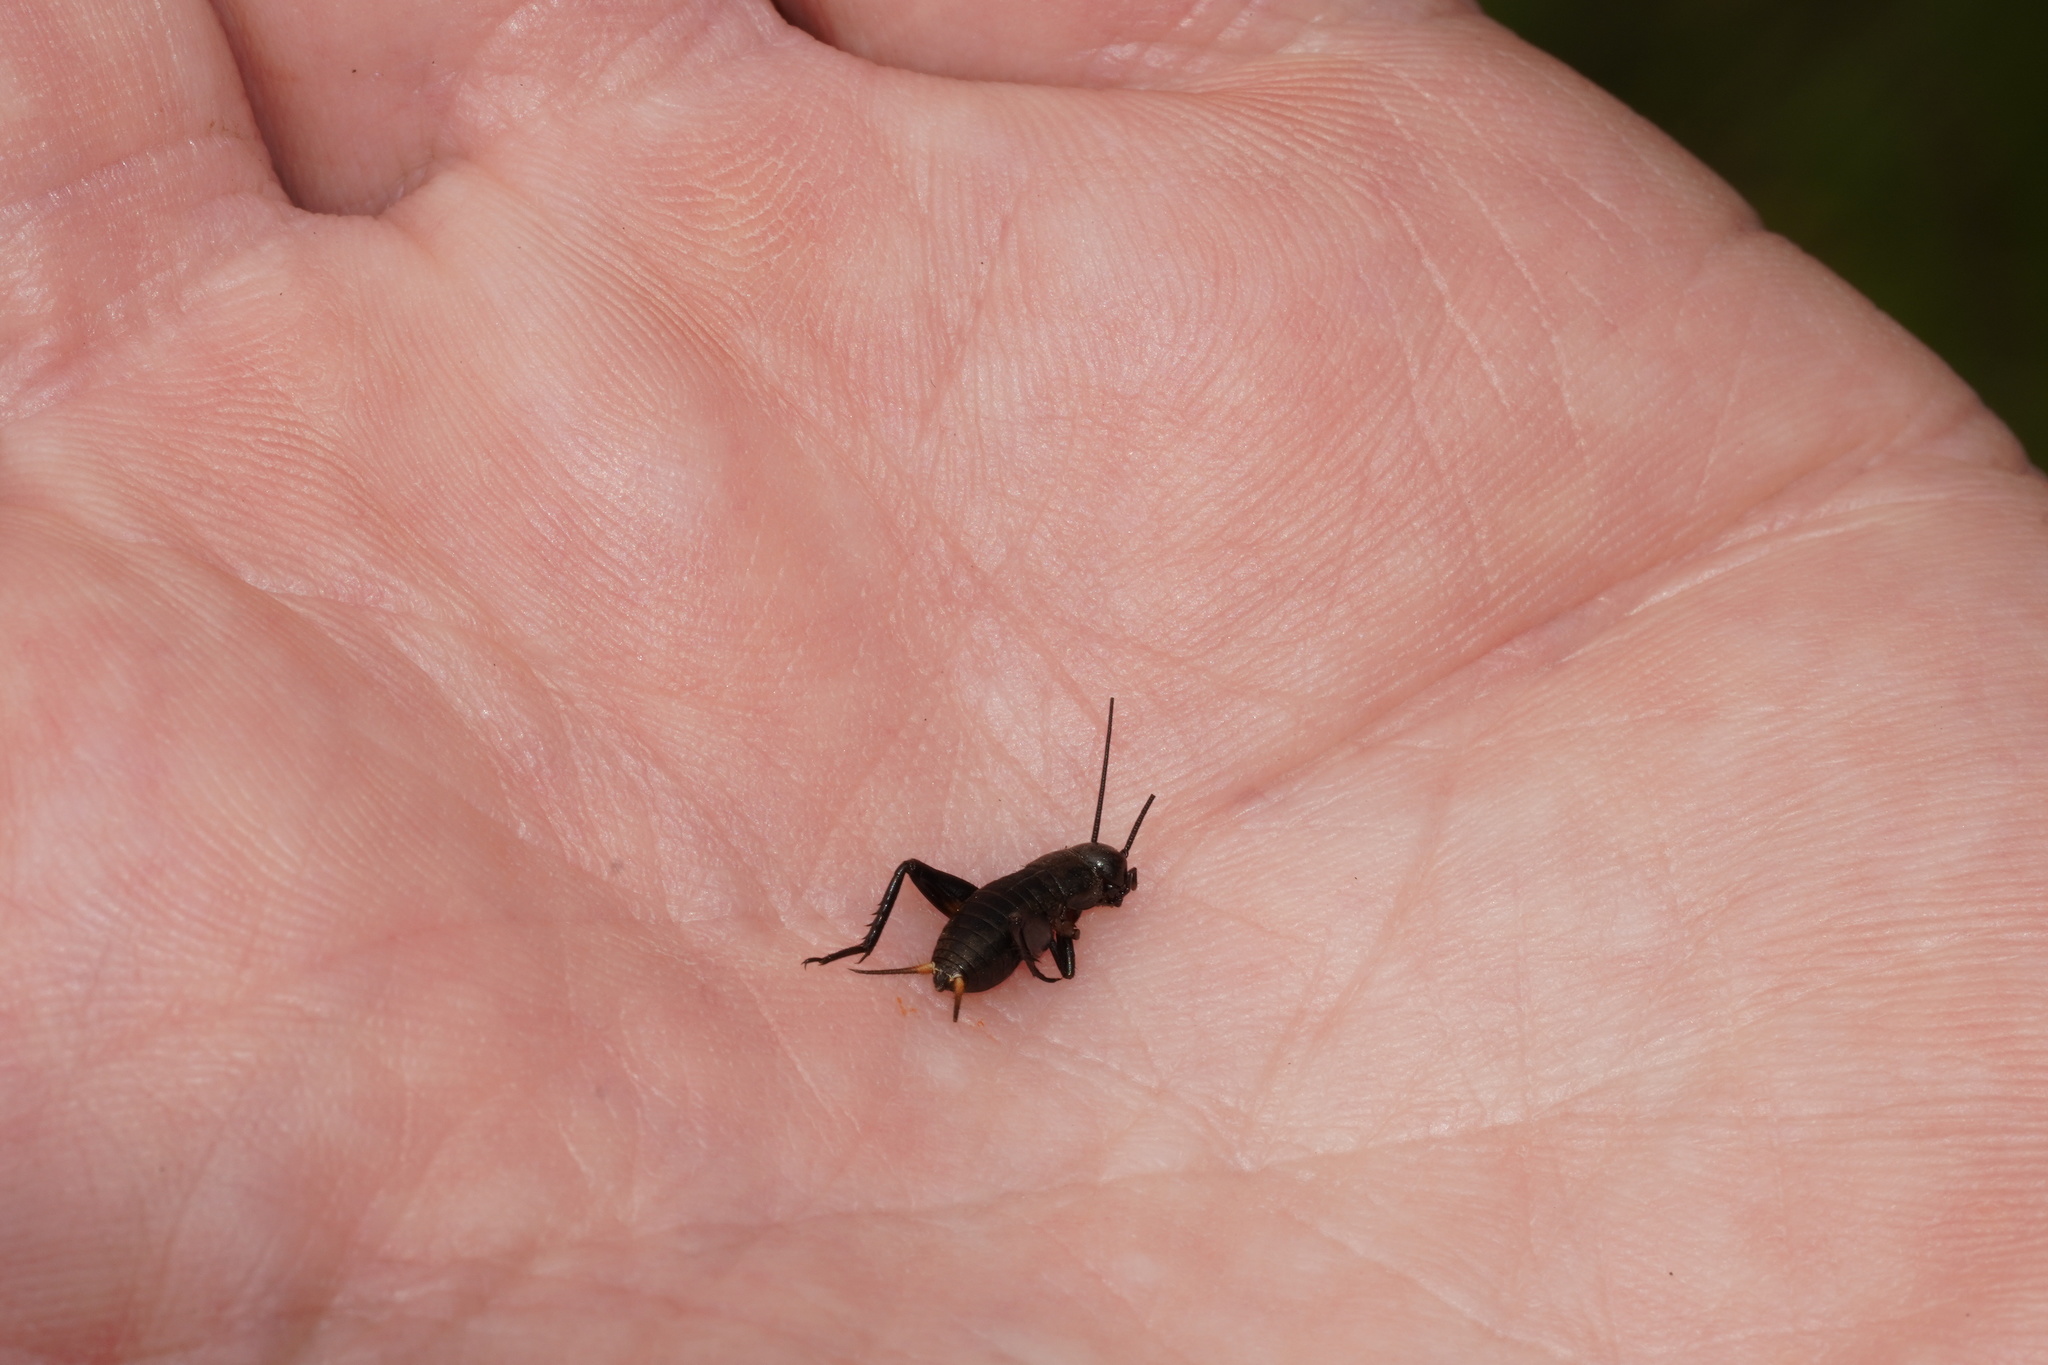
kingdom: Animalia
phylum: Arthropoda
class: Insecta
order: Orthoptera
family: Gryllidae
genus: Gryllus
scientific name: Gryllus campestris
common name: Field cricket
